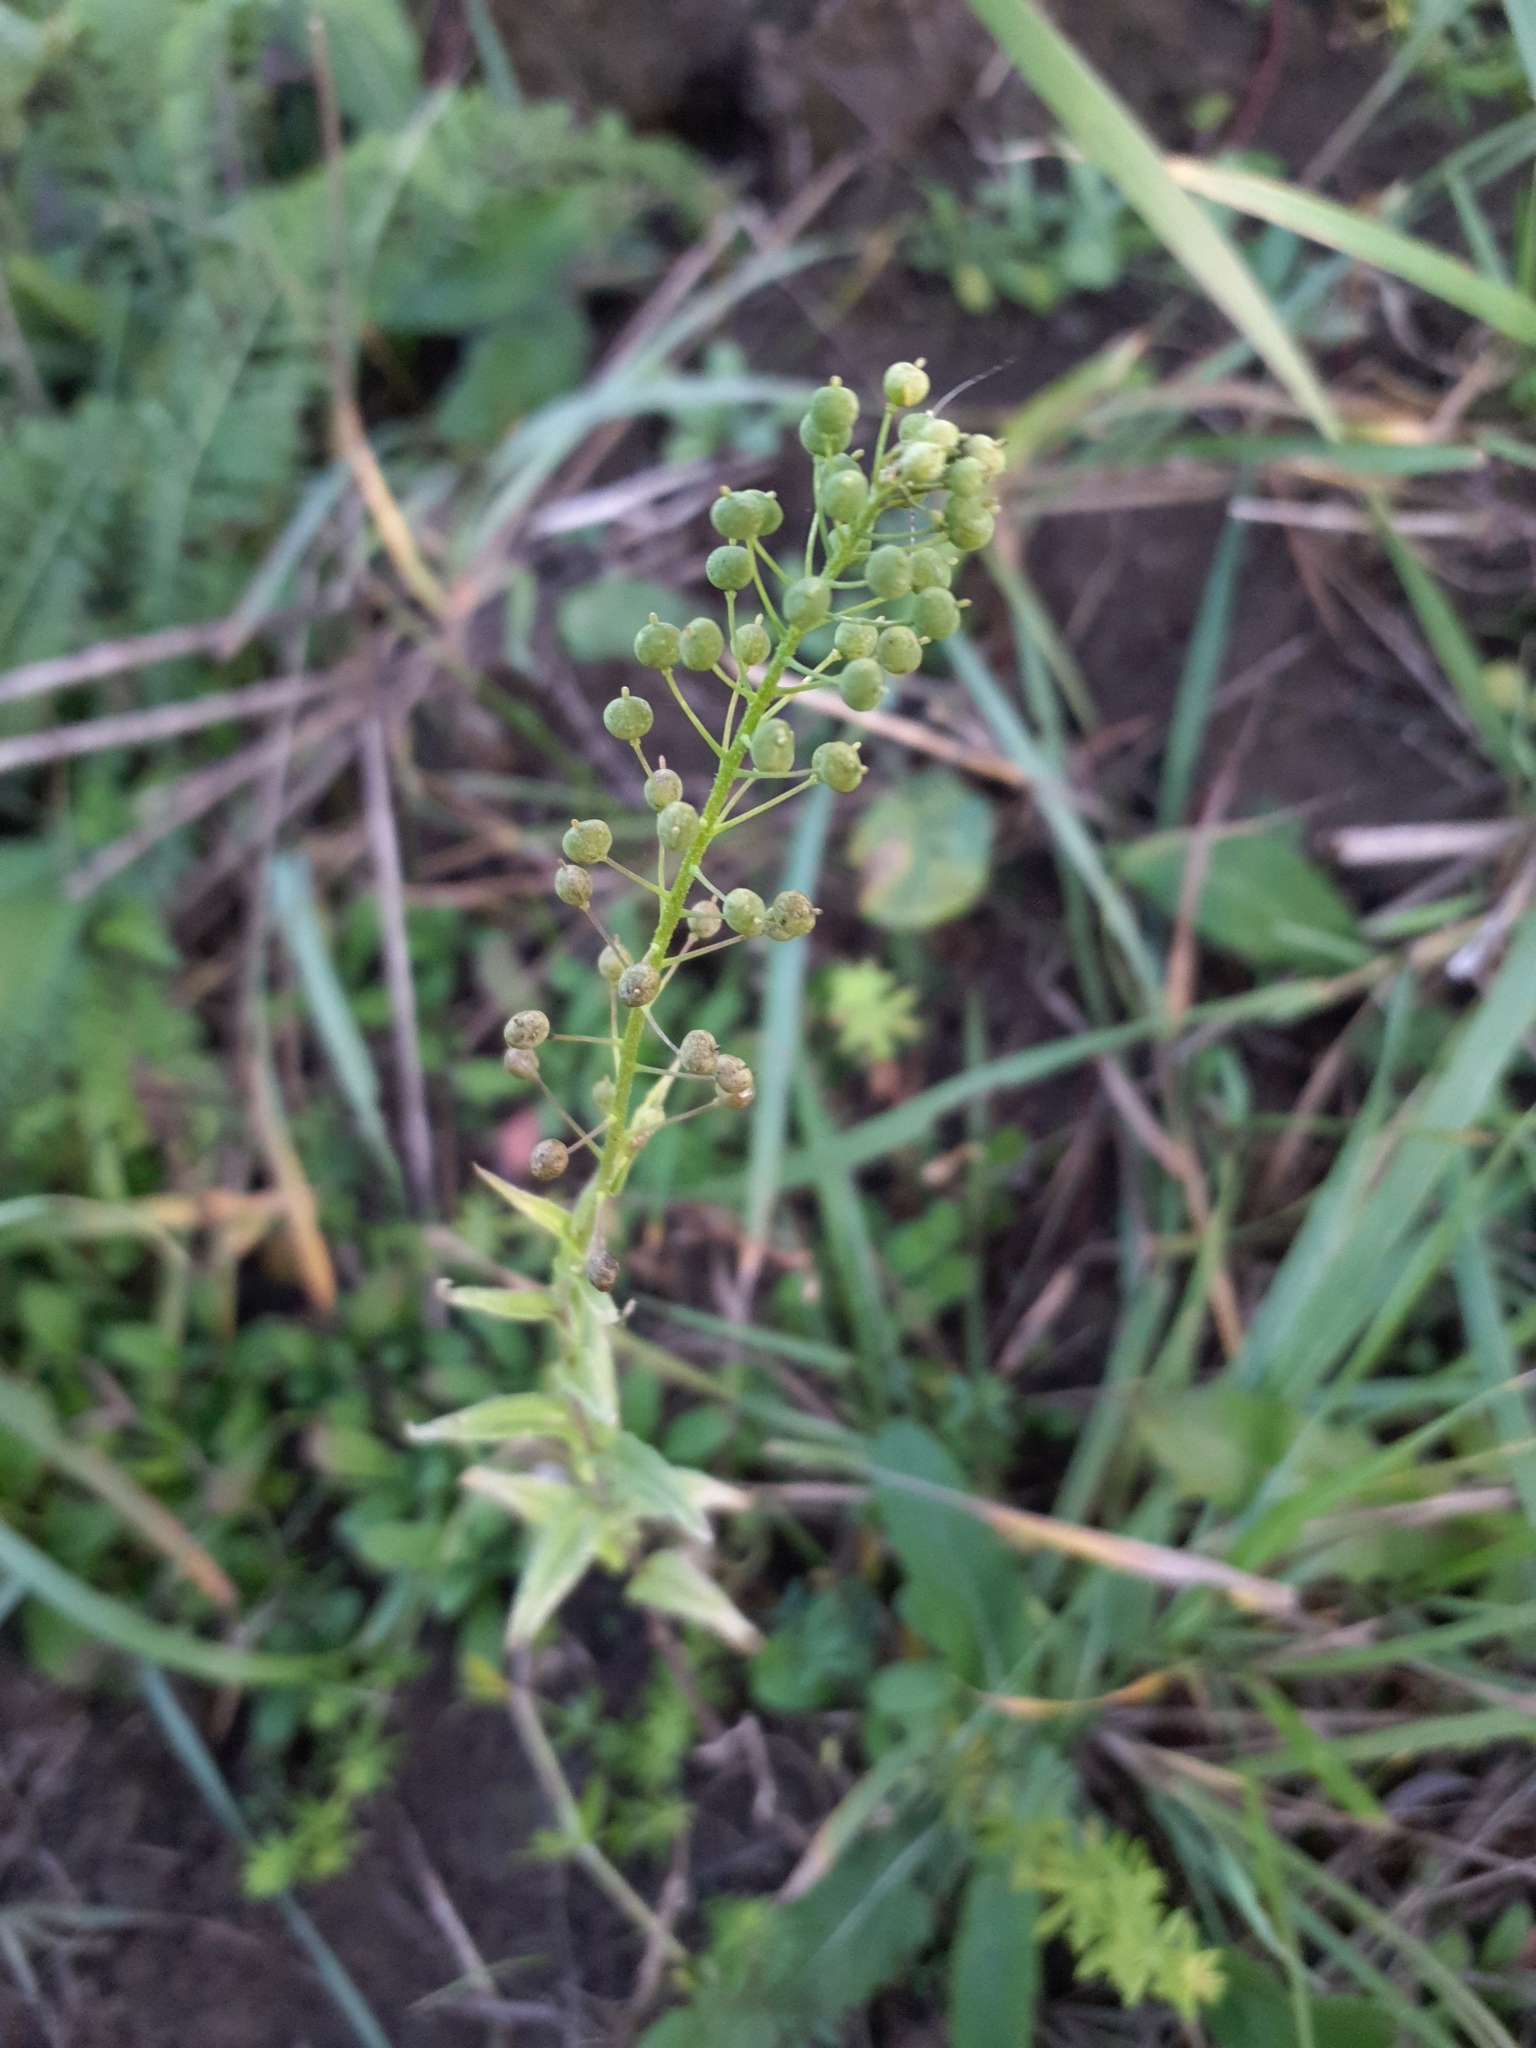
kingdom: Plantae
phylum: Tracheophyta
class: Magnoliopsida
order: Brassicales
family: Brassicaceae
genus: Neslia
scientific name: Neslia paniculata
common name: Ball mustard
